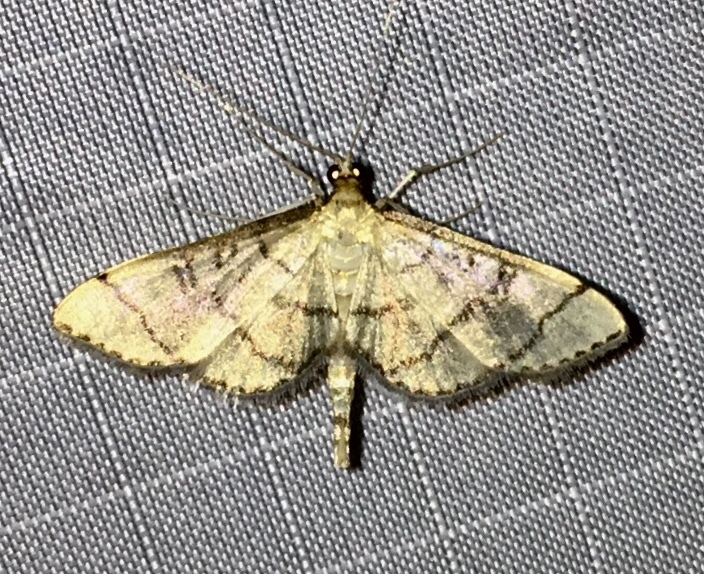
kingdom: Animalia
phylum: Arthropoda
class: Insecta
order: Lepidoptera
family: Crambidae
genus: Lamprosema
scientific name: Lamprosema Blepharomastix ranalis
